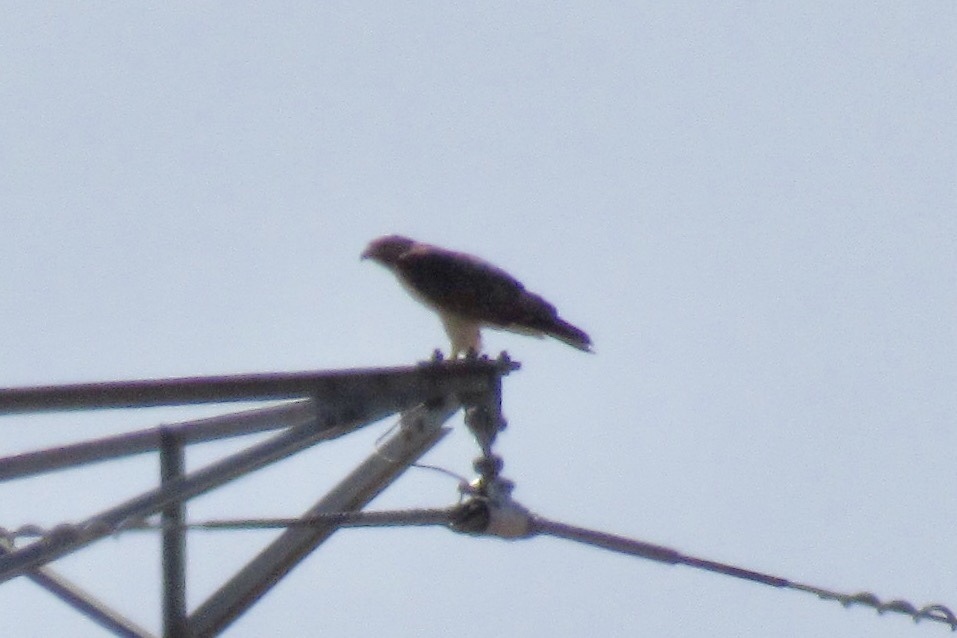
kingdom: Animalia
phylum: Chordata
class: Aves
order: Accipitriformes
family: Accipitridae
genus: Buteo
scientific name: Buteo jamaicensis
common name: Red-tailed hawk
